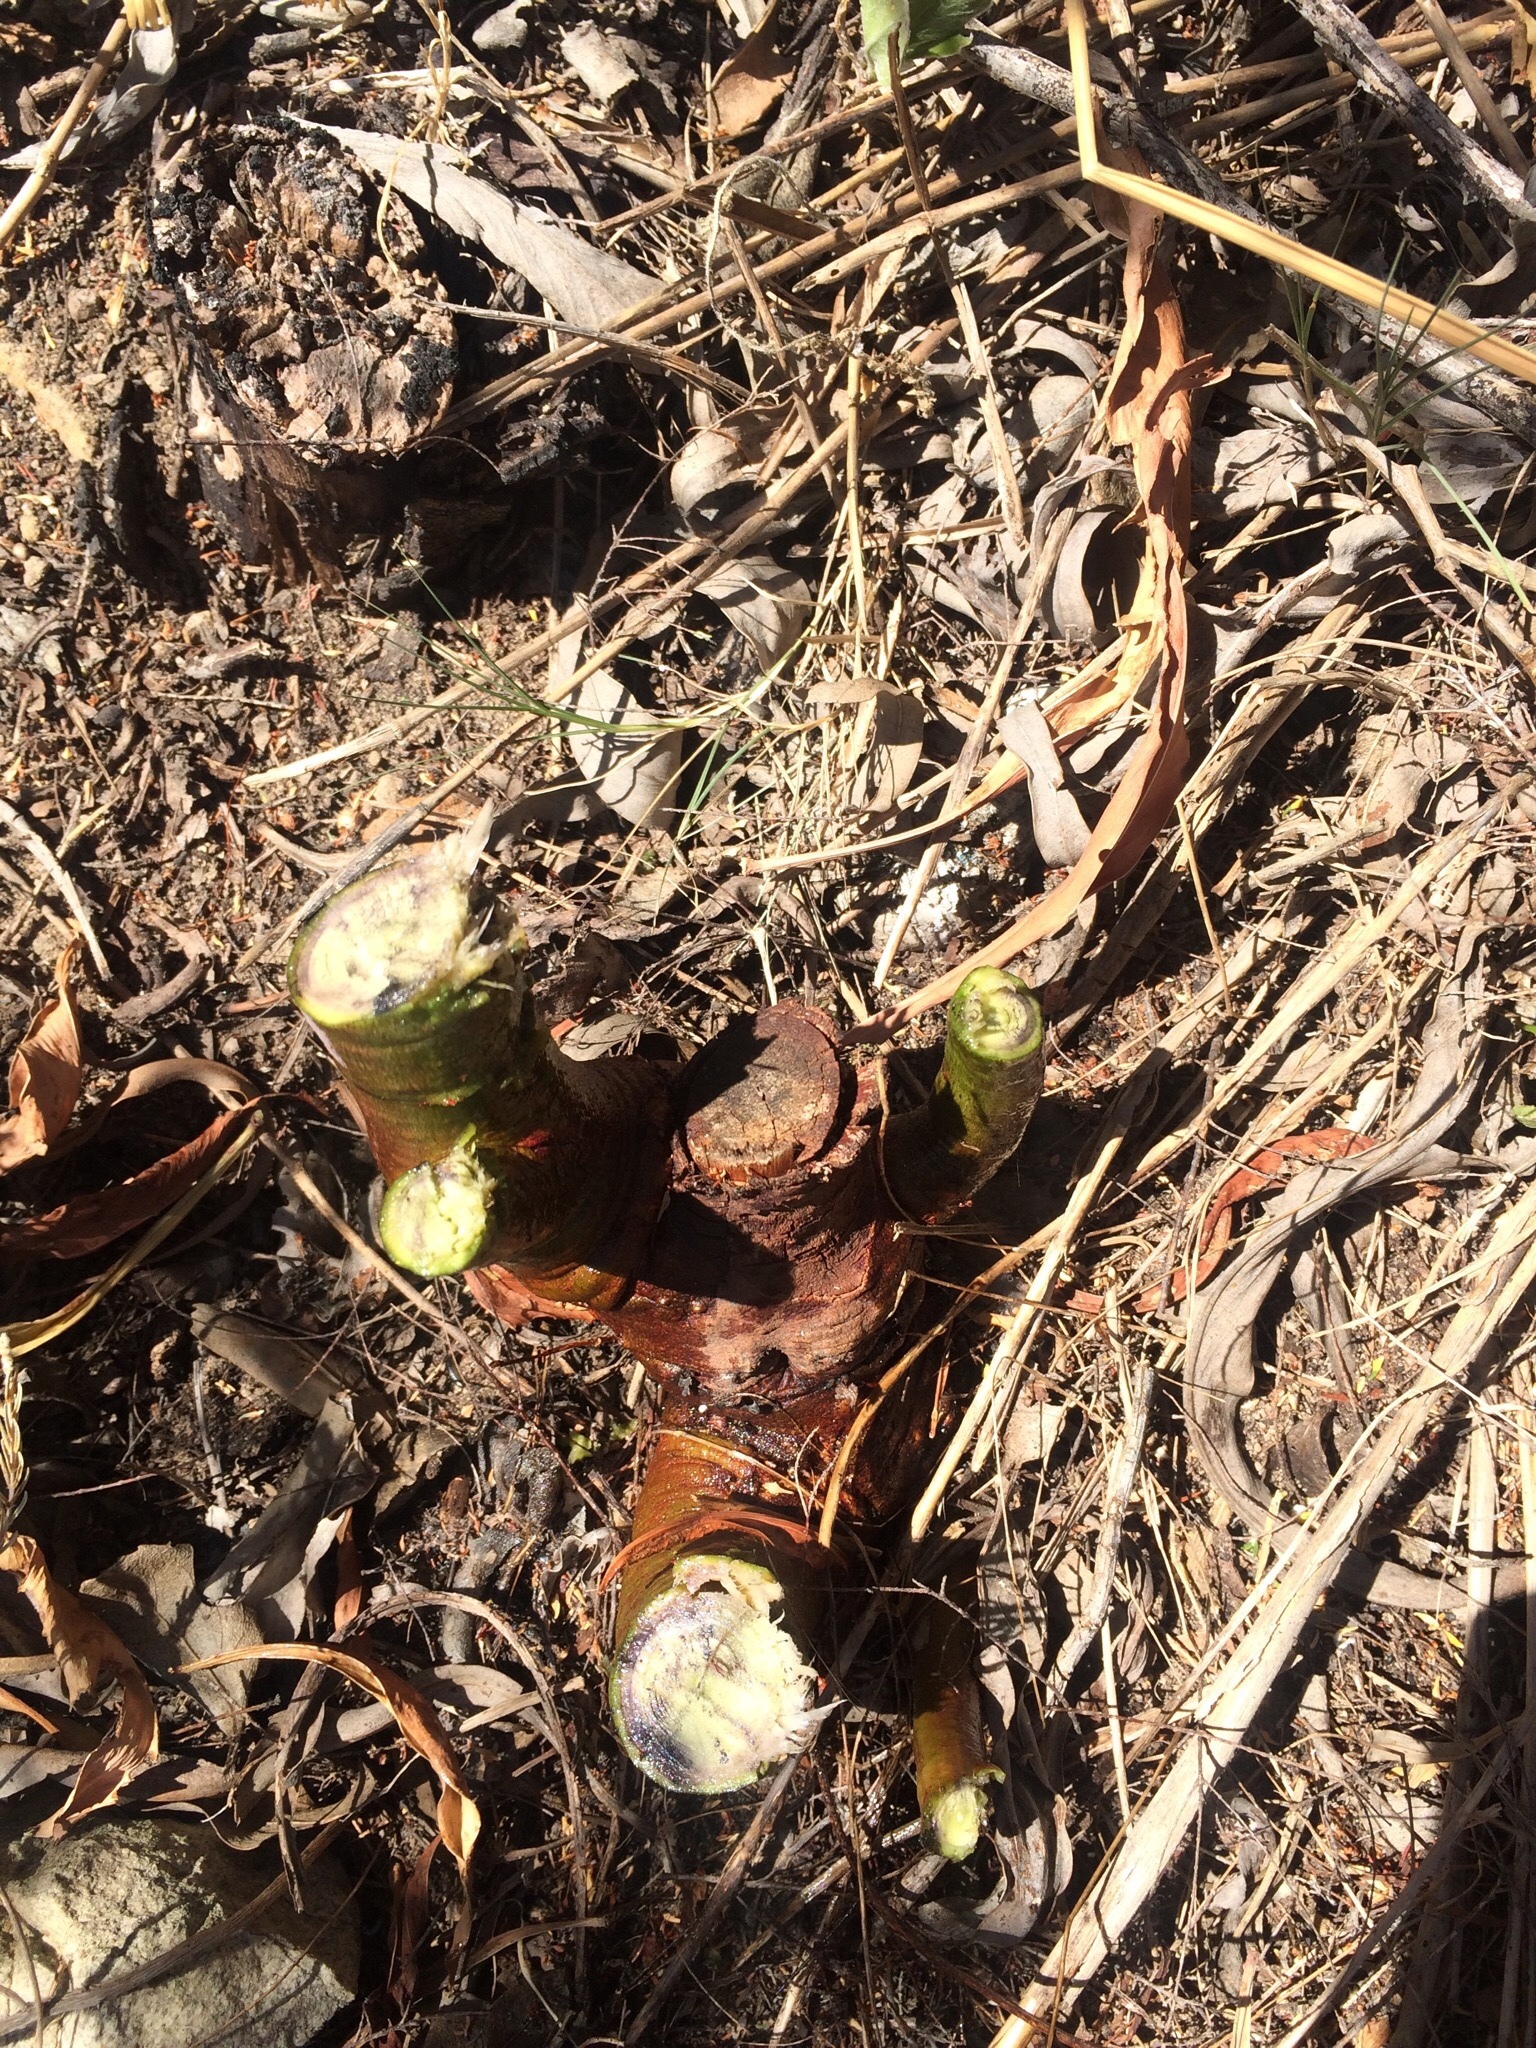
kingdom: Plantae
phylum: Tracheophyta
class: Magnoliopsida
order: Fabales
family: Fabaceae
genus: Acacia
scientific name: Acacia saligna
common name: Orange wattle
